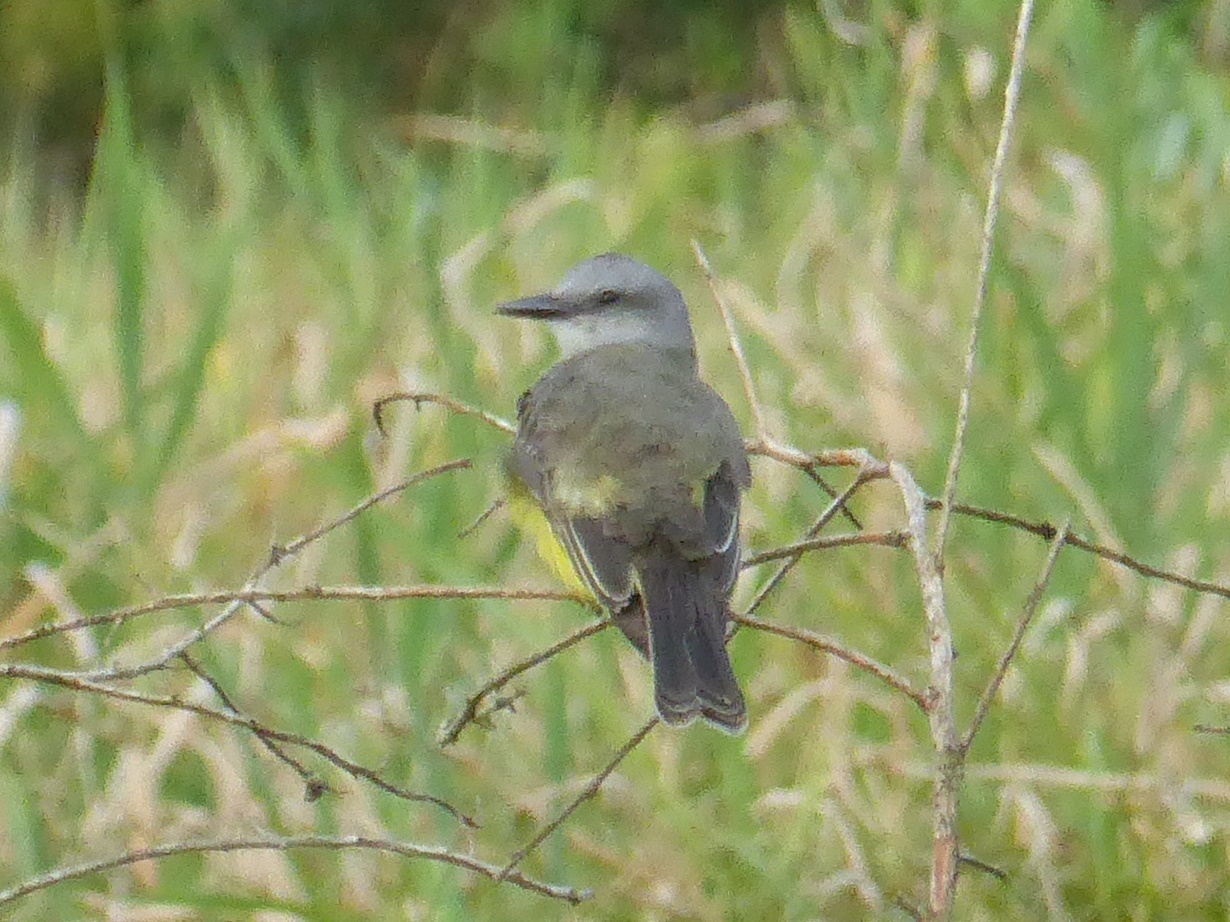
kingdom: Animalia
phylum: Chordata
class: Aves
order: Passeriformes
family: Tyrannidae
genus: Tyrannus
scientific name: Tyrannus melancholicus
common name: Tropical kingbird
